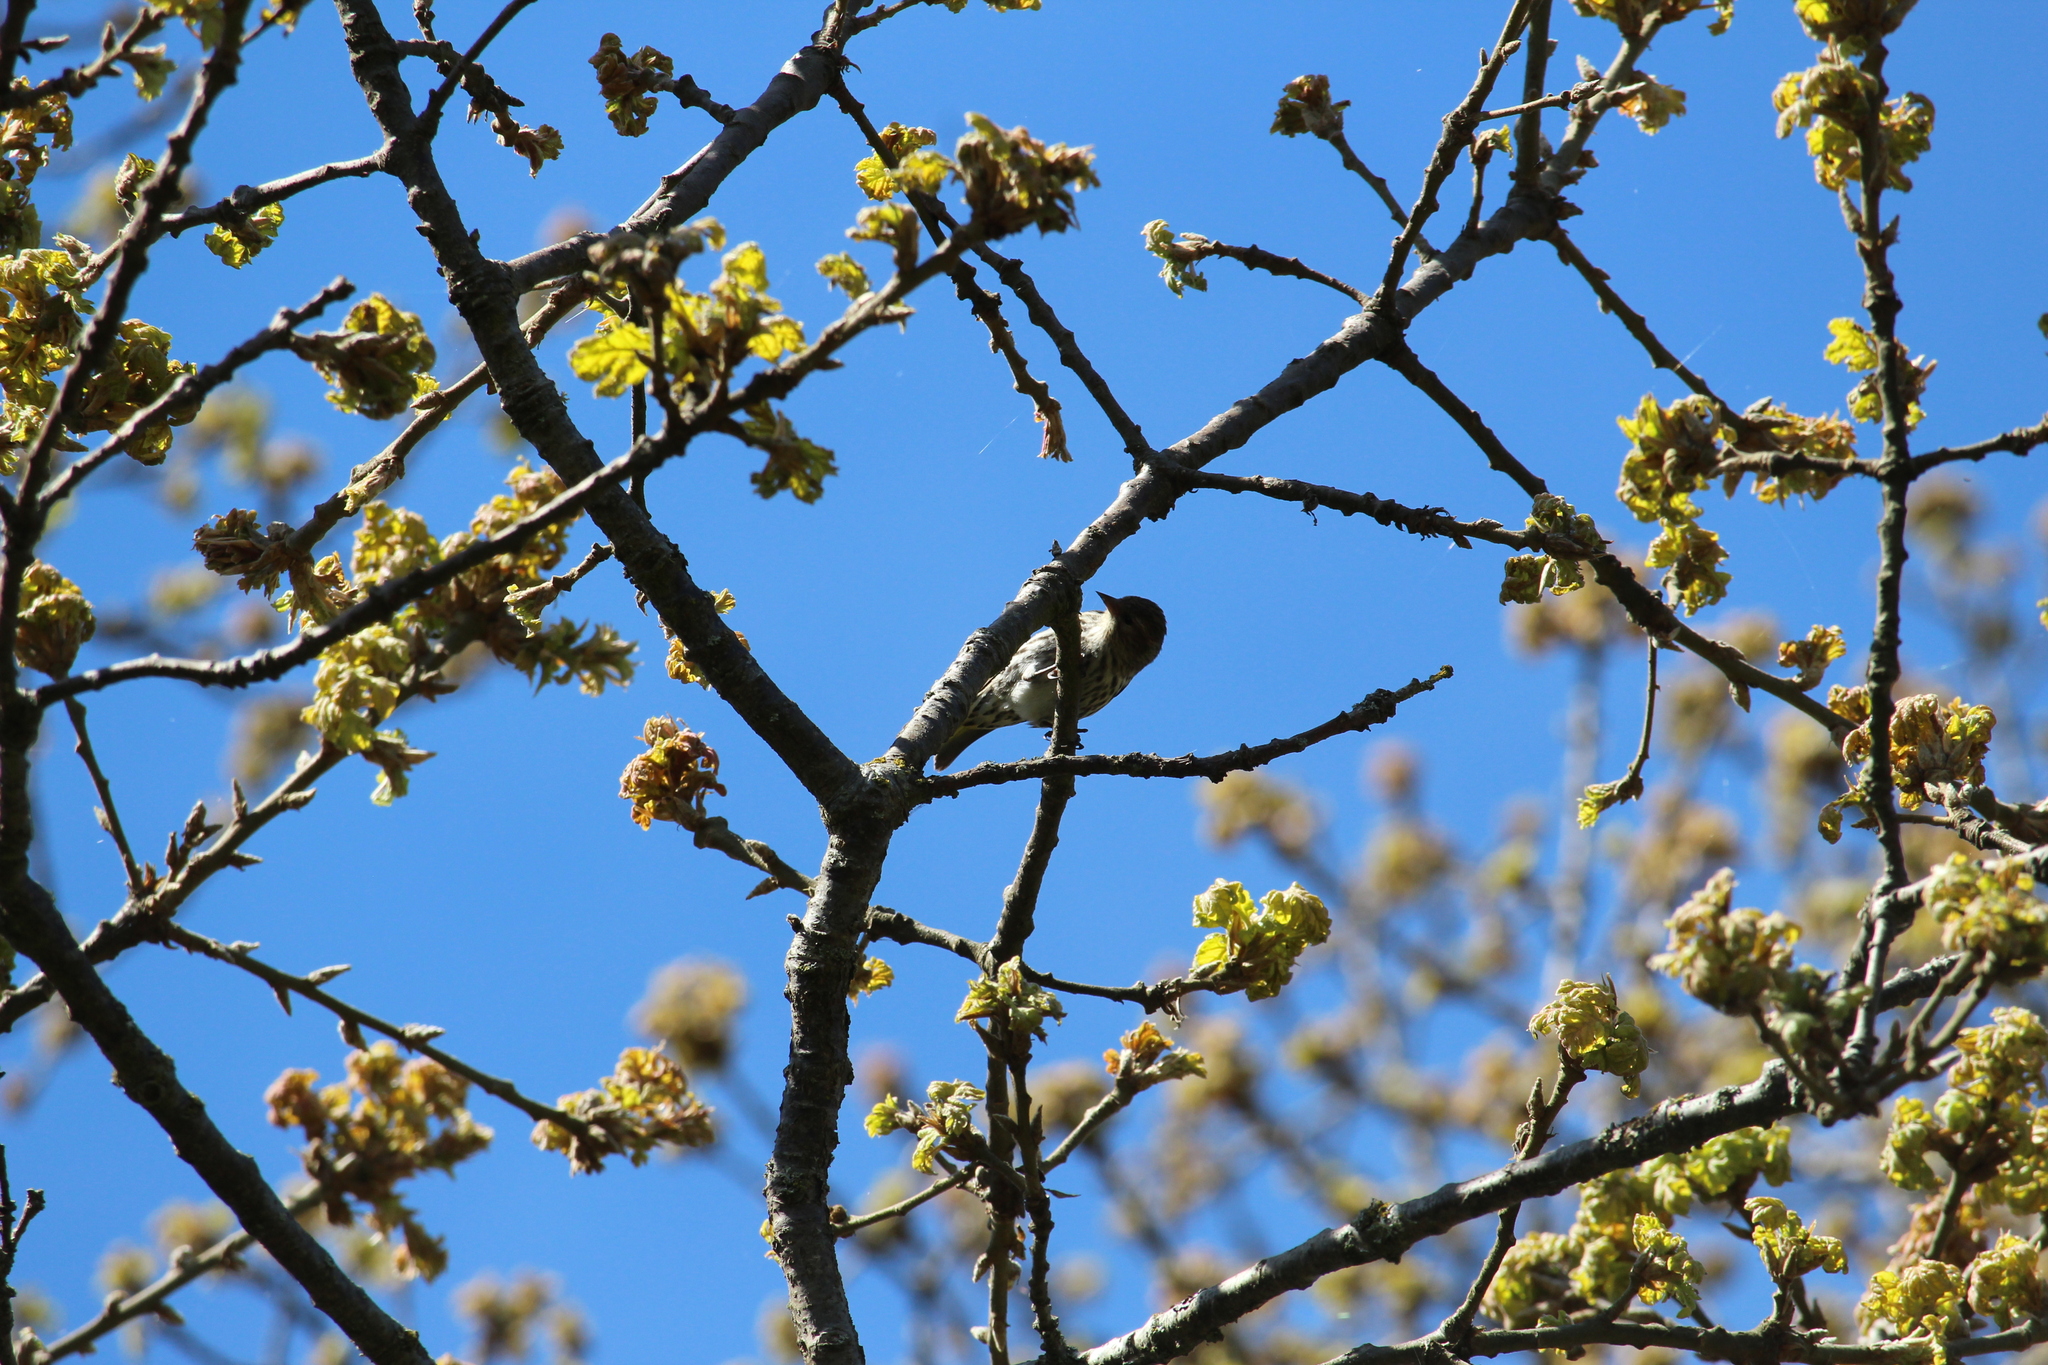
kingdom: Animalia
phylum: Chordata
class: Aves
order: Passeriformes
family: Fringillidae
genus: Spinus
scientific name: Spinus pinus
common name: Pine siskin
